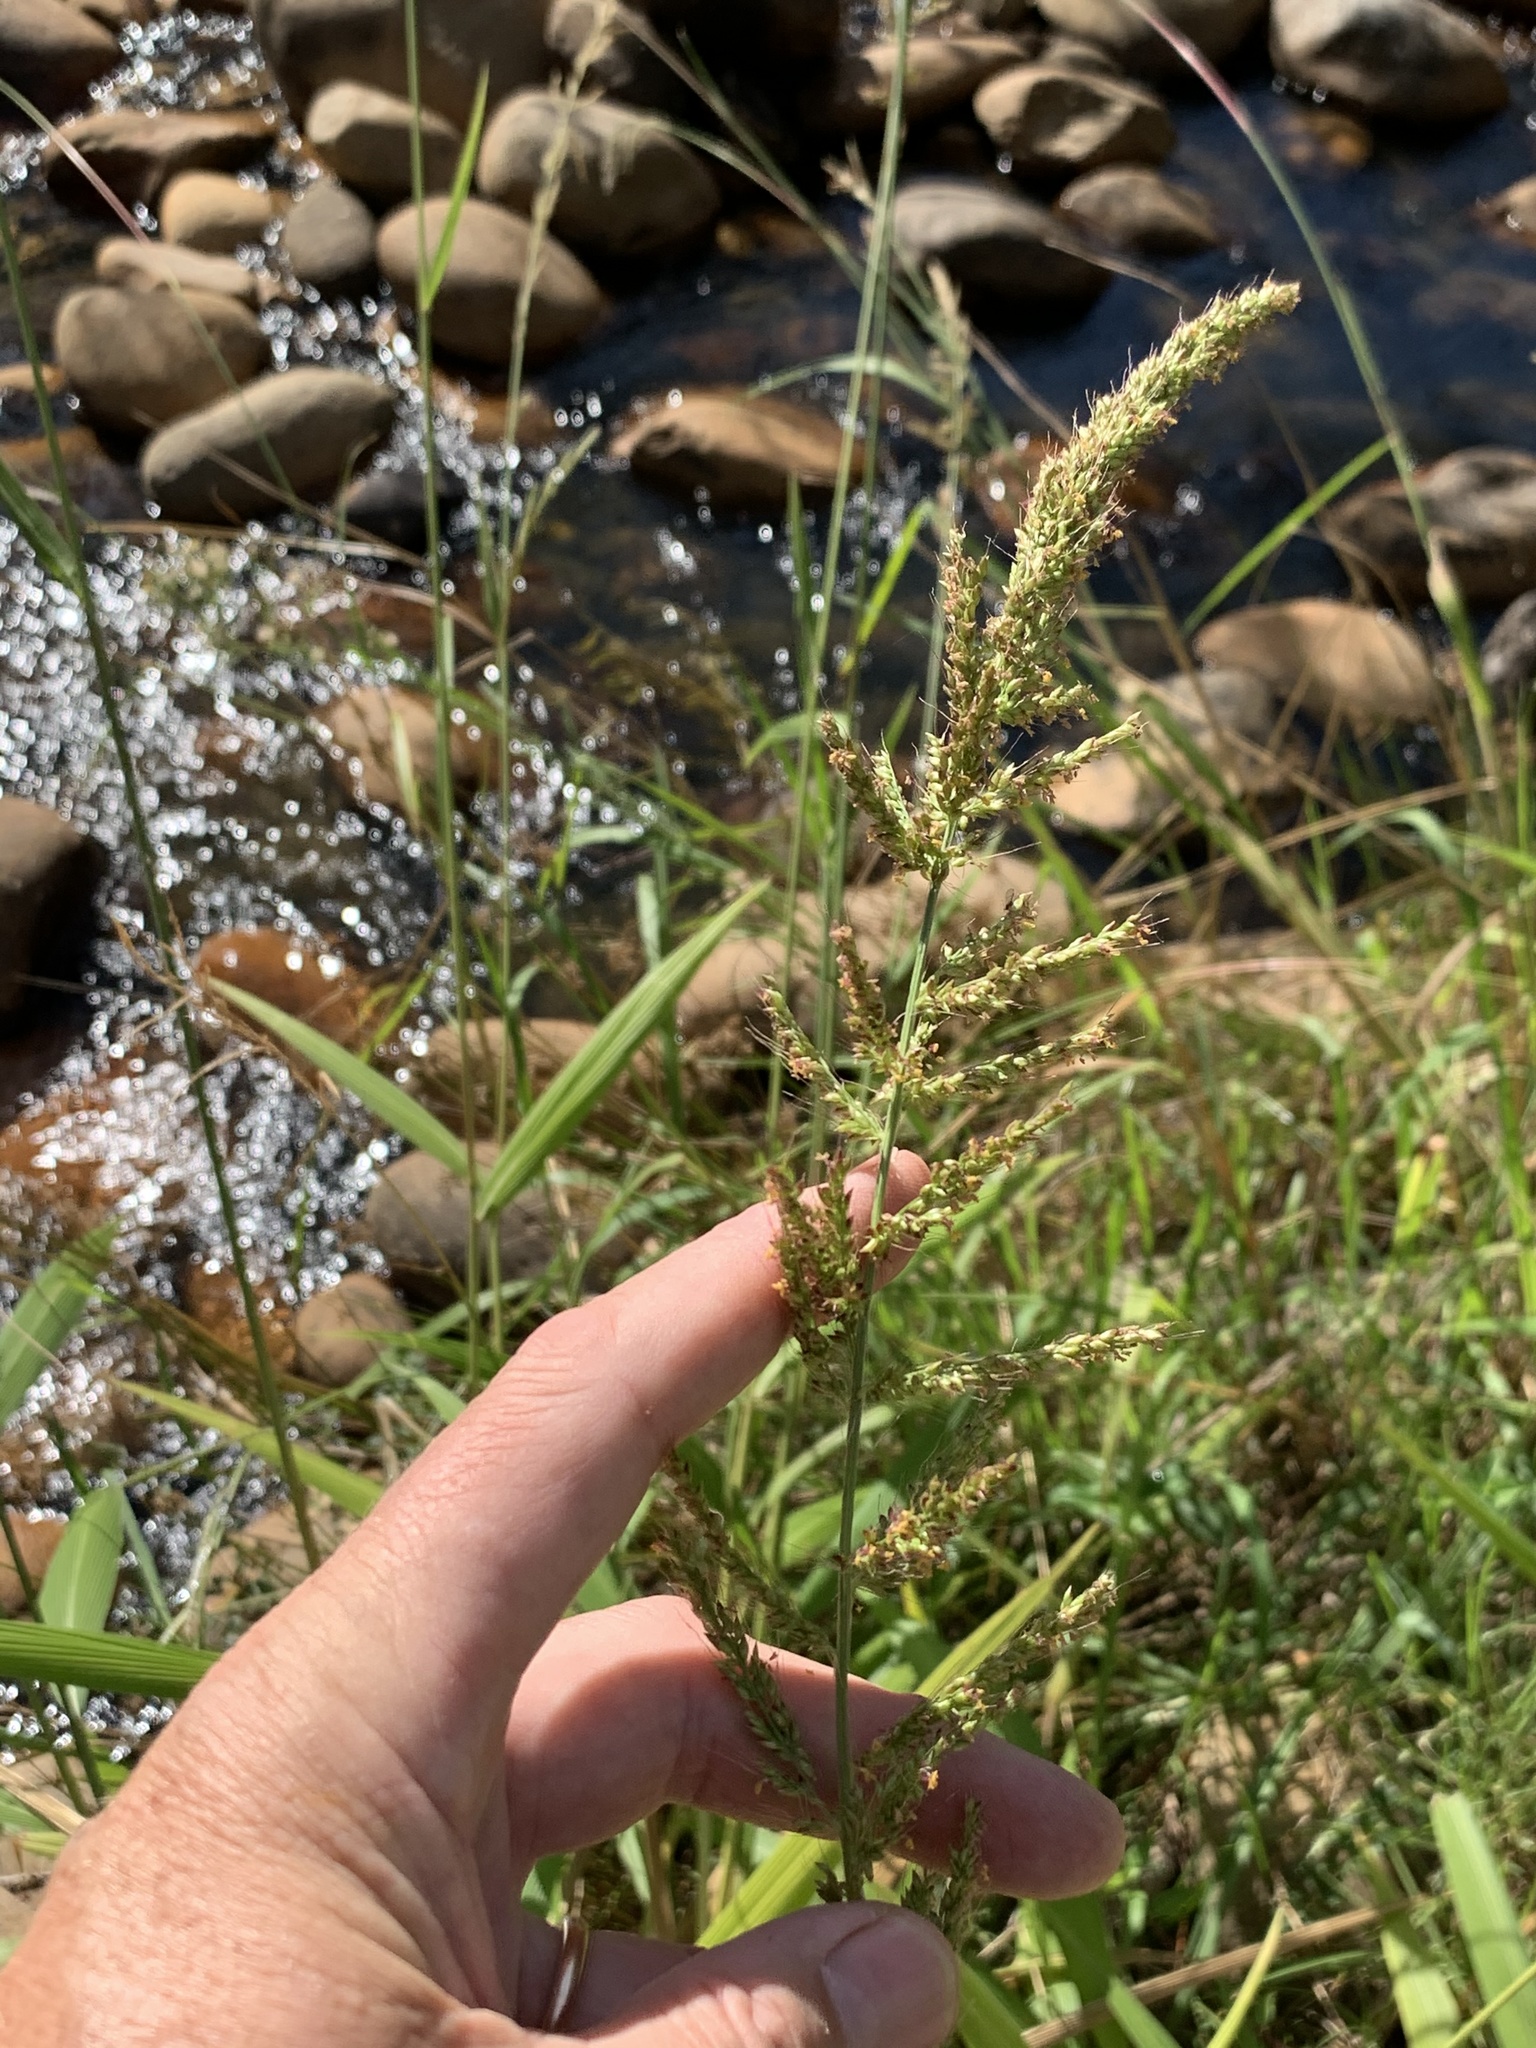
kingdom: Plantae
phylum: Tracheophyta
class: Liliopsida
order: Poales
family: Poaceae
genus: Setaria
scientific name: Setaria megaphylla
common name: Bigleaf bristlegrass
